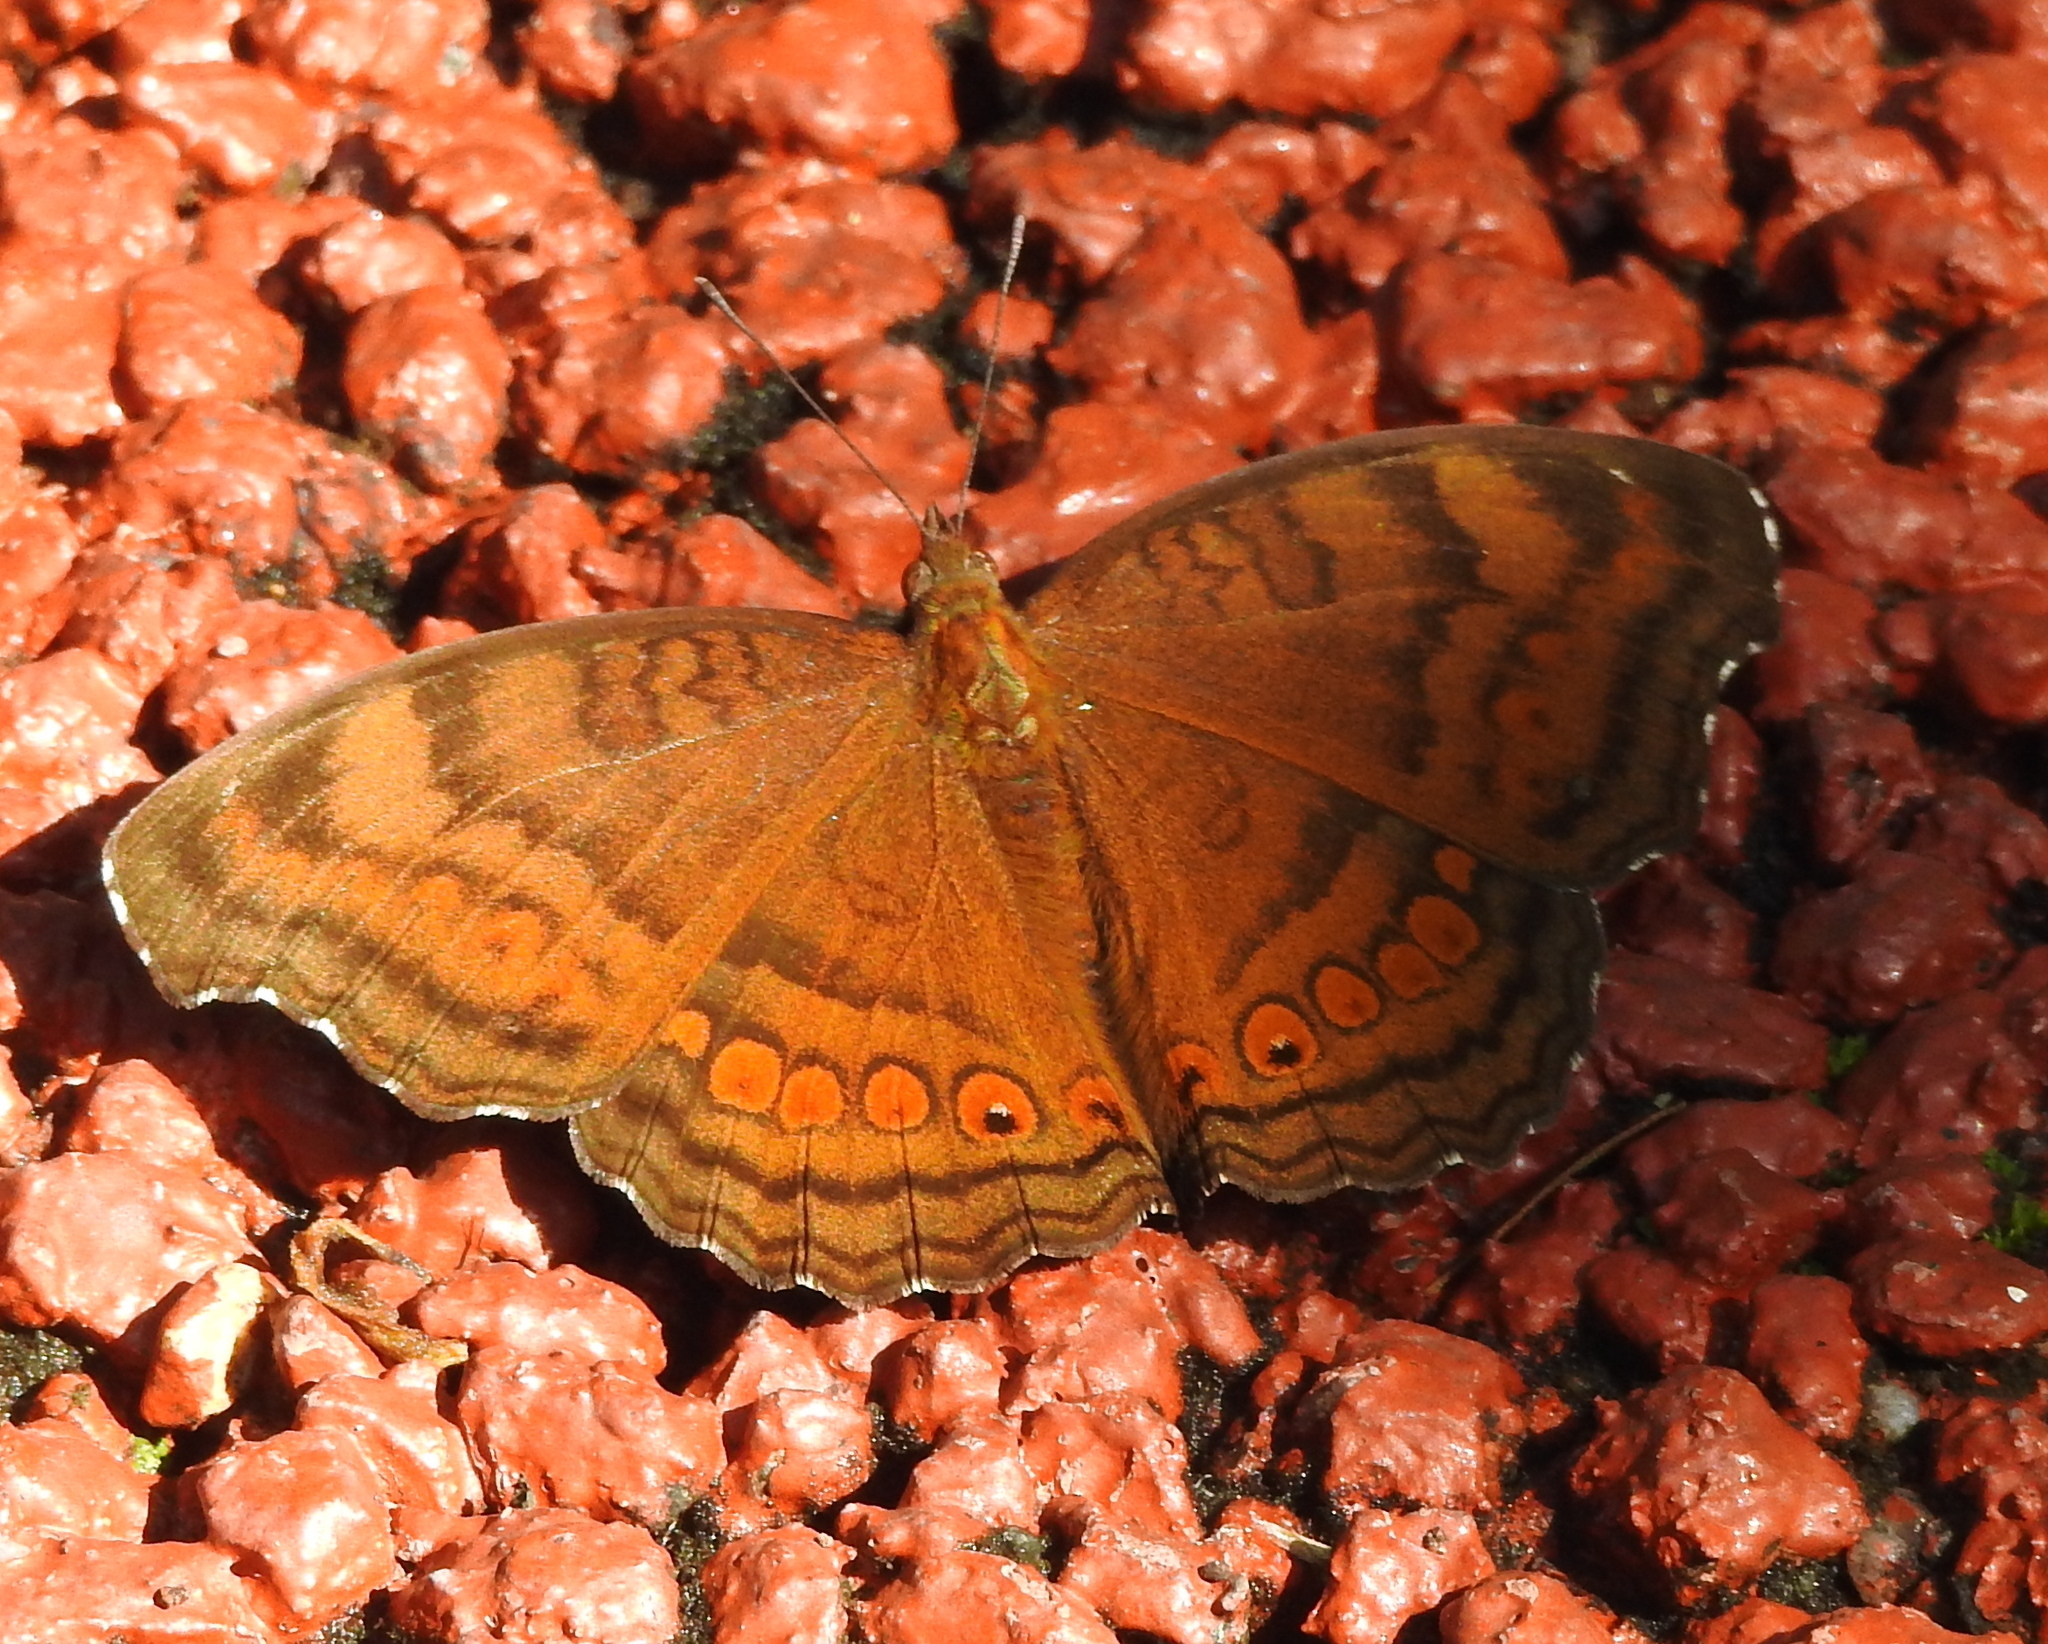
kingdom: Animalia
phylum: Arthropoda
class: Insecta
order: Lepidoptera
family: Nymphalidae
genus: Junonia
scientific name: Junonia hedonia
